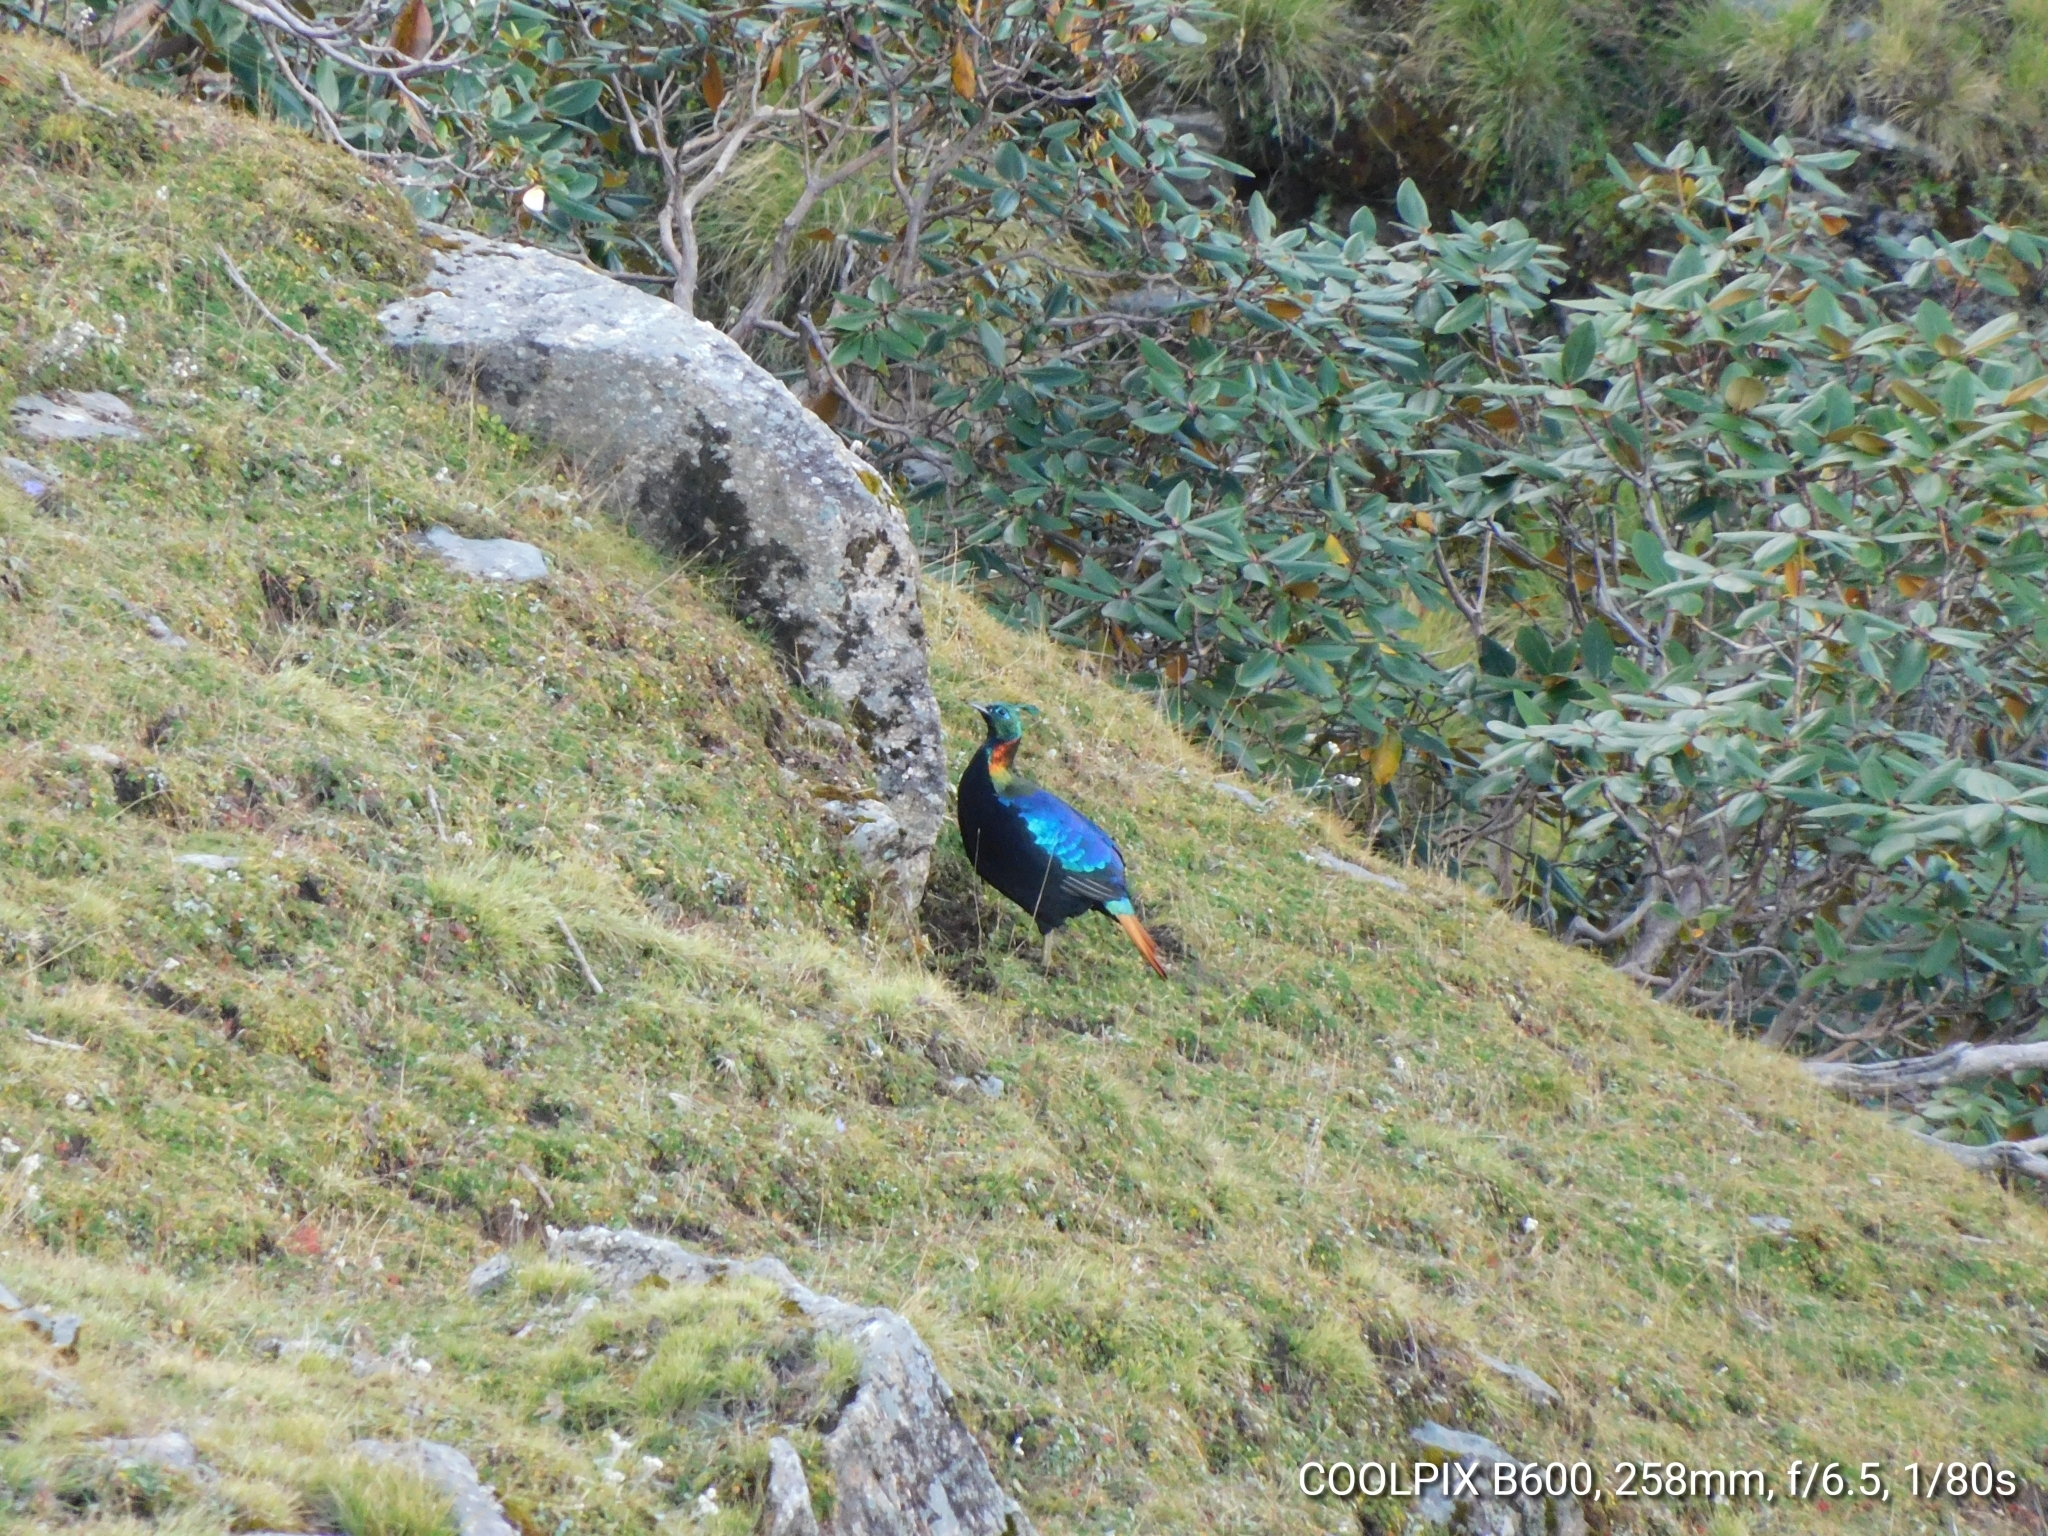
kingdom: Animalia
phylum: Chordata
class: Aves
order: Galliformes
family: Phasianidae
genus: Lophophorus
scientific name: Lophophorus impejanus
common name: Himalayan monal
